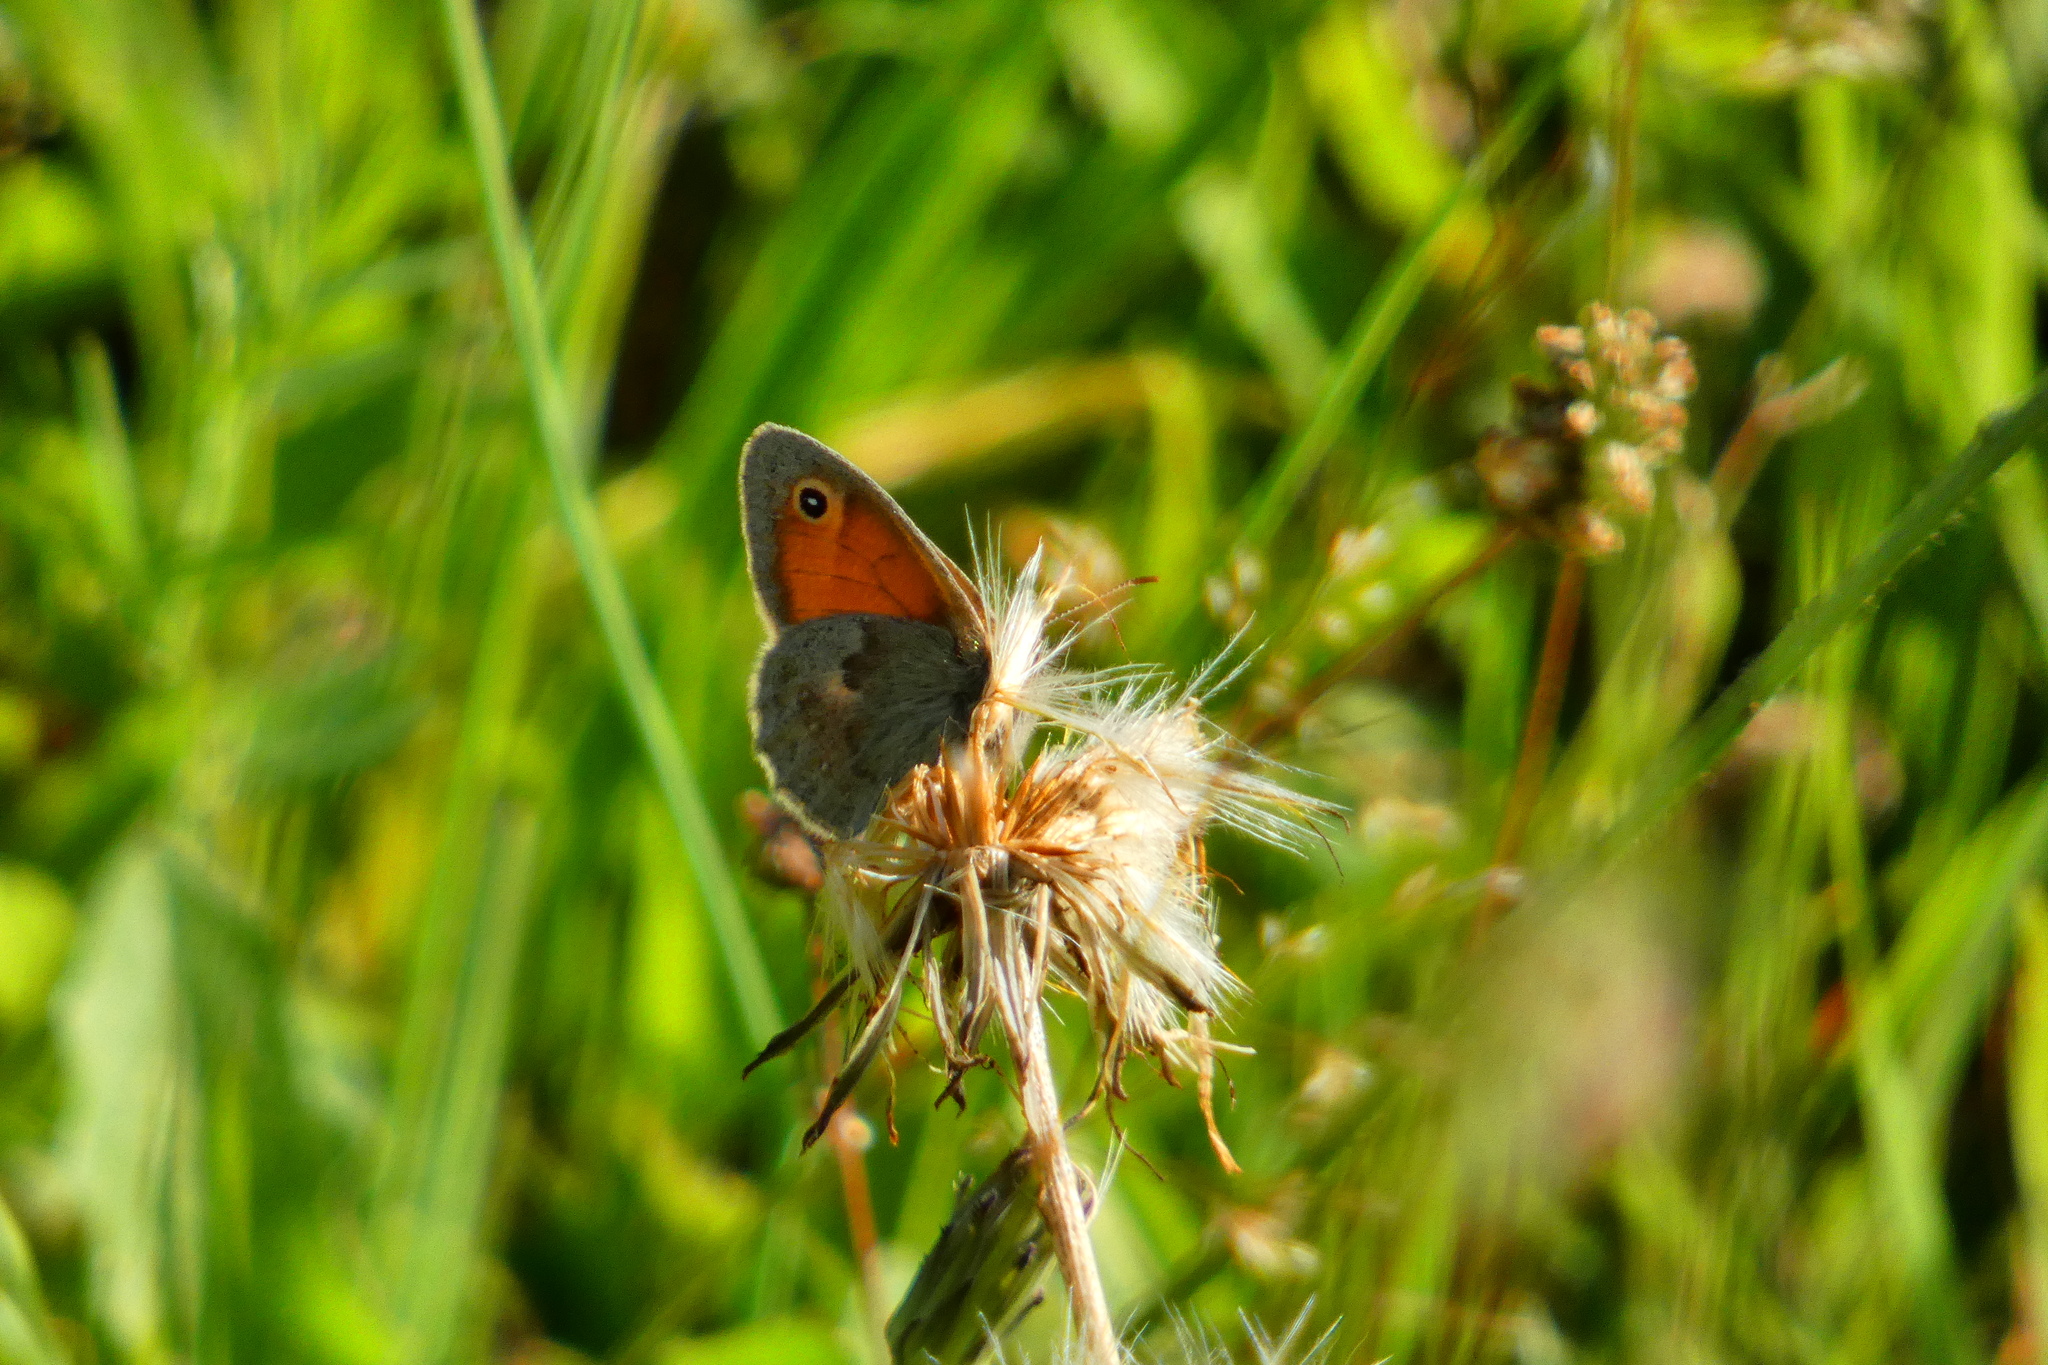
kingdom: Animalia
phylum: Arthropoda
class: Insecta
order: Lepidoptera
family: Nymphalidae
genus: Coenonympha
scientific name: Coenonympha pamphilus
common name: Small heath
